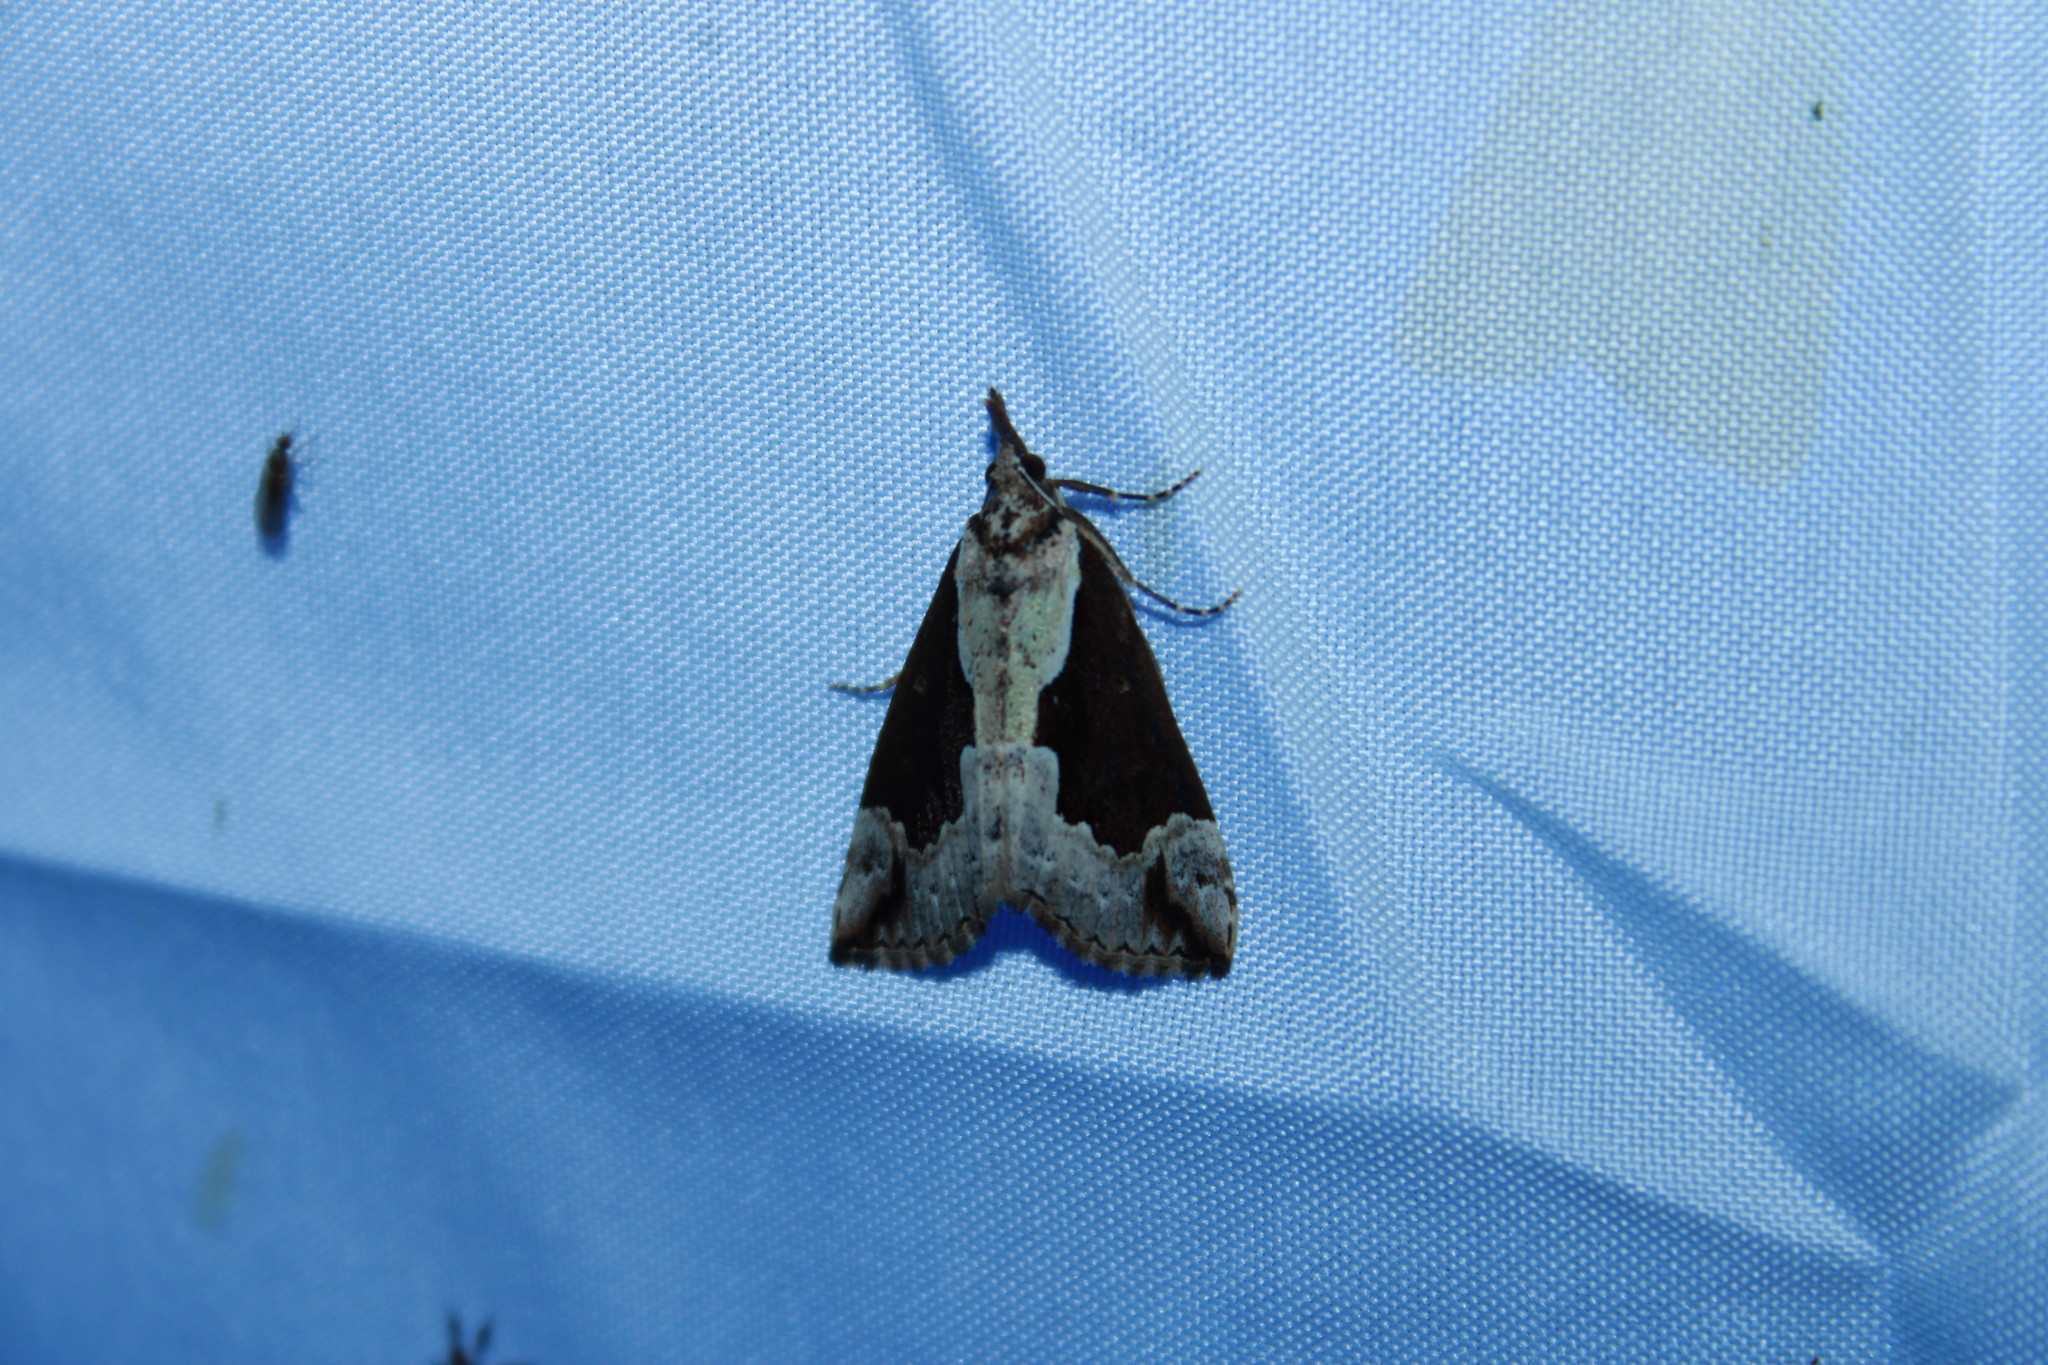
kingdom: Animalia
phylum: Arthropoda
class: Insecta
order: Lepidoptera
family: Erebidae
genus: Hypena
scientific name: Hypena baltimoralis
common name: Baltimore snout
